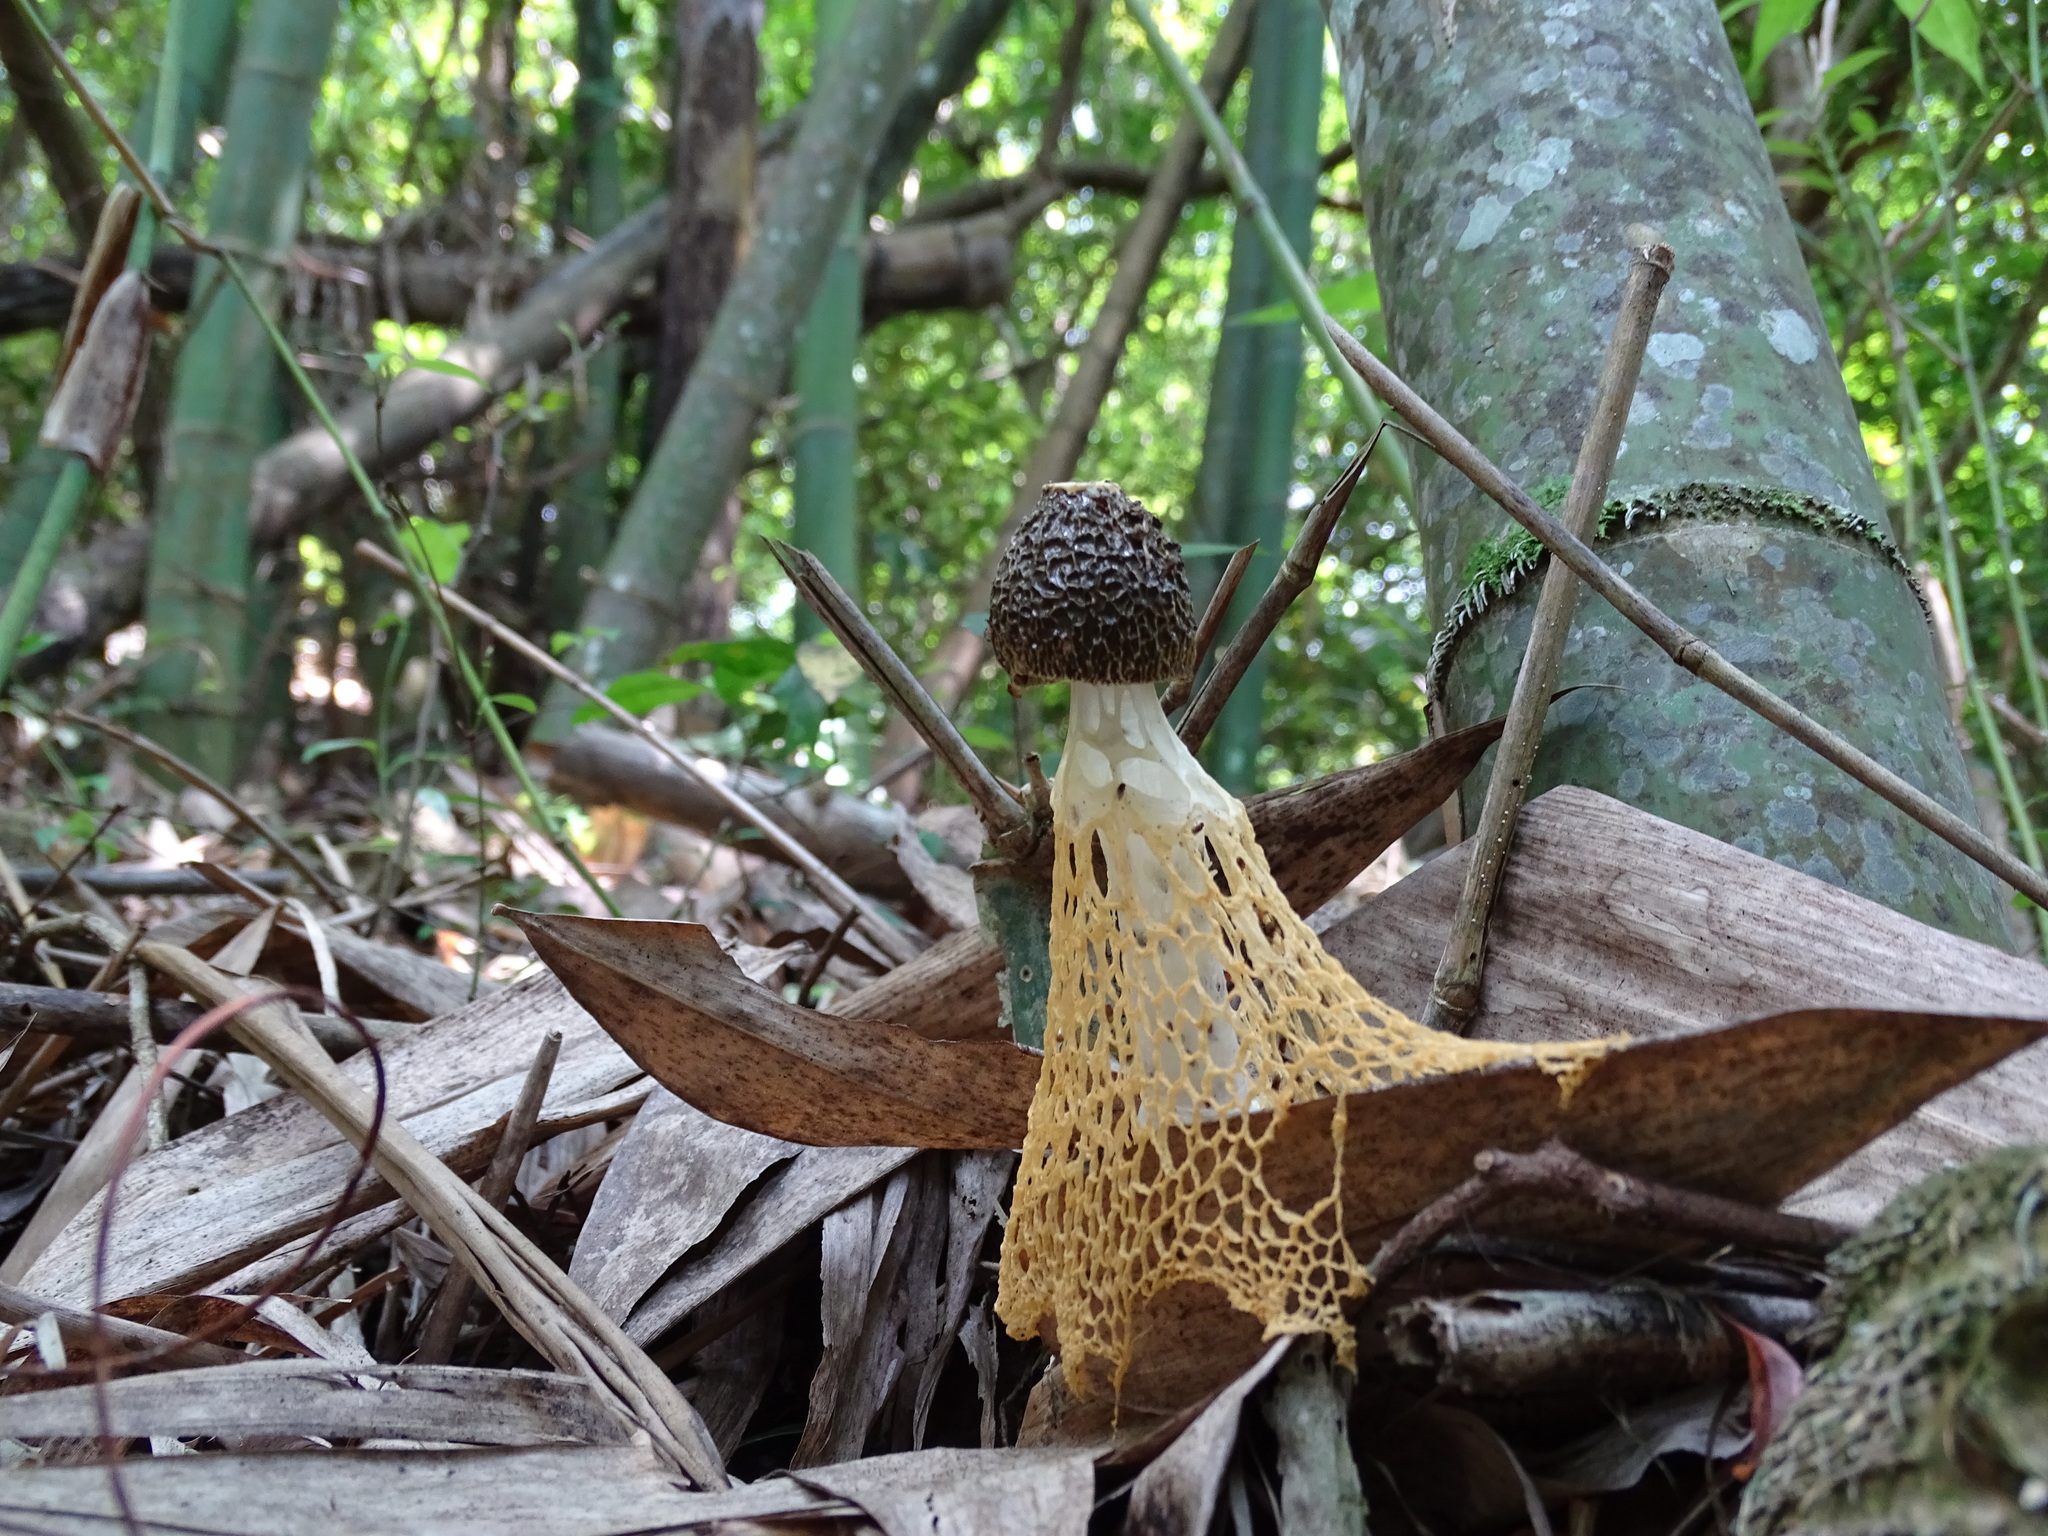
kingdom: Fungi
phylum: Basidiomycota
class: Agaricomycetes
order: Phallales
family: Phallaceae
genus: Phallus
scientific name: Phallus lutescens
